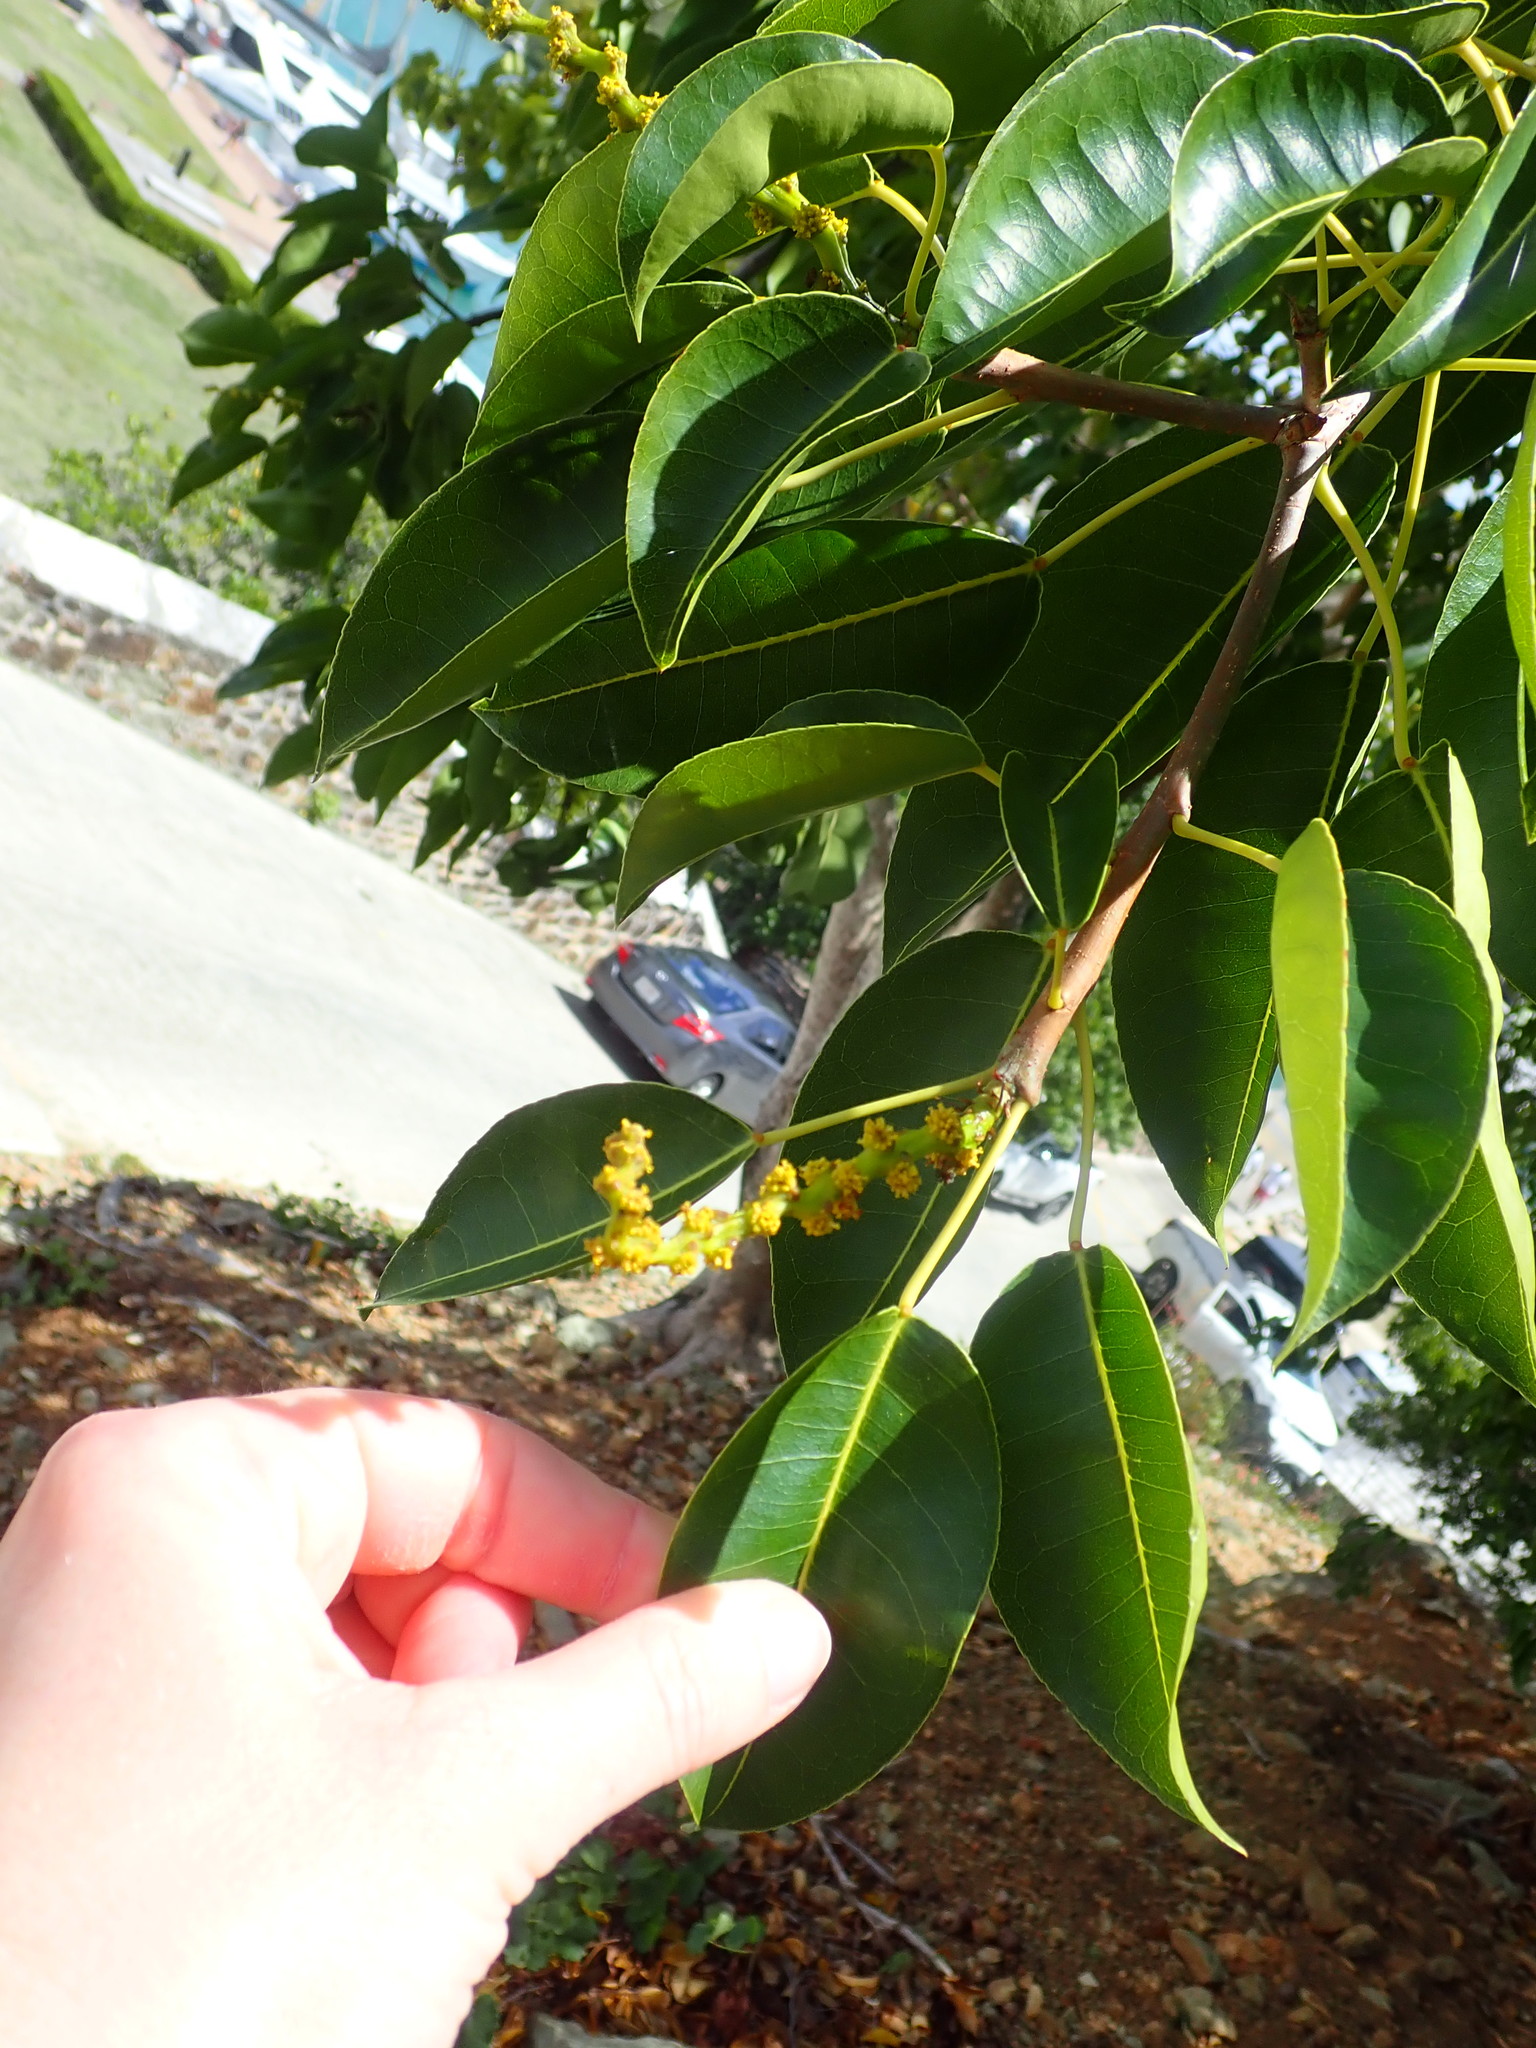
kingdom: Plantae
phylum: Tracheophyta
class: Magnoliopsida
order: Malpighiales
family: Euphorbiaceae
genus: Hippomane
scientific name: Hippomane mancinella
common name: Manchineel
